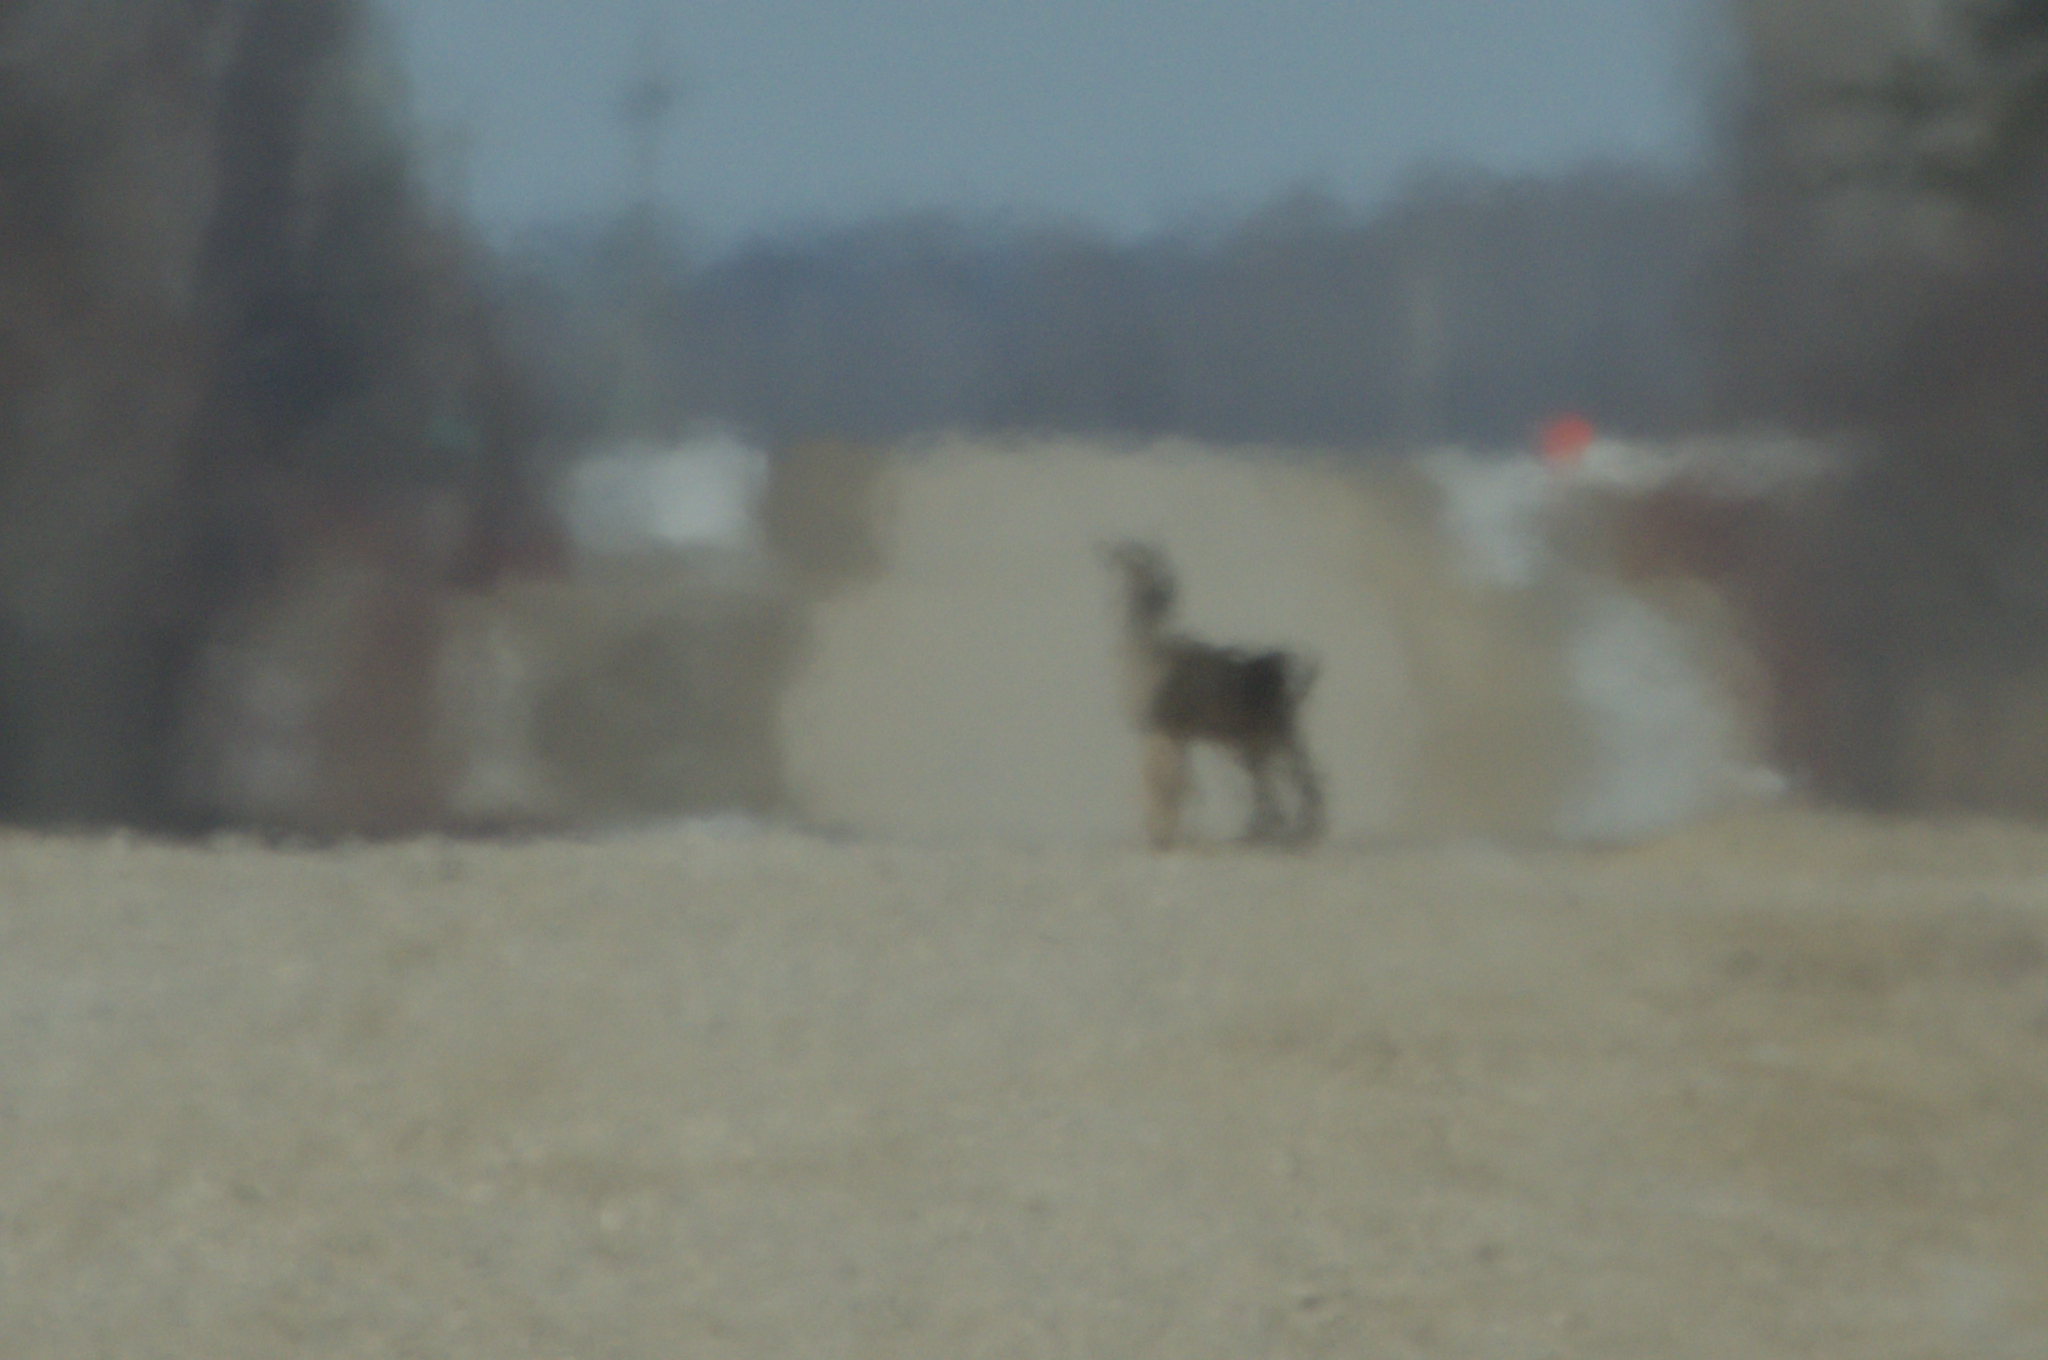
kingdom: Animalia
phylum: Chordata
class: Mammalia
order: Artiodactyla
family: Cervidae
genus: Odocoileus
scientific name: Odocoileus virginianus
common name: White-tailed deer
